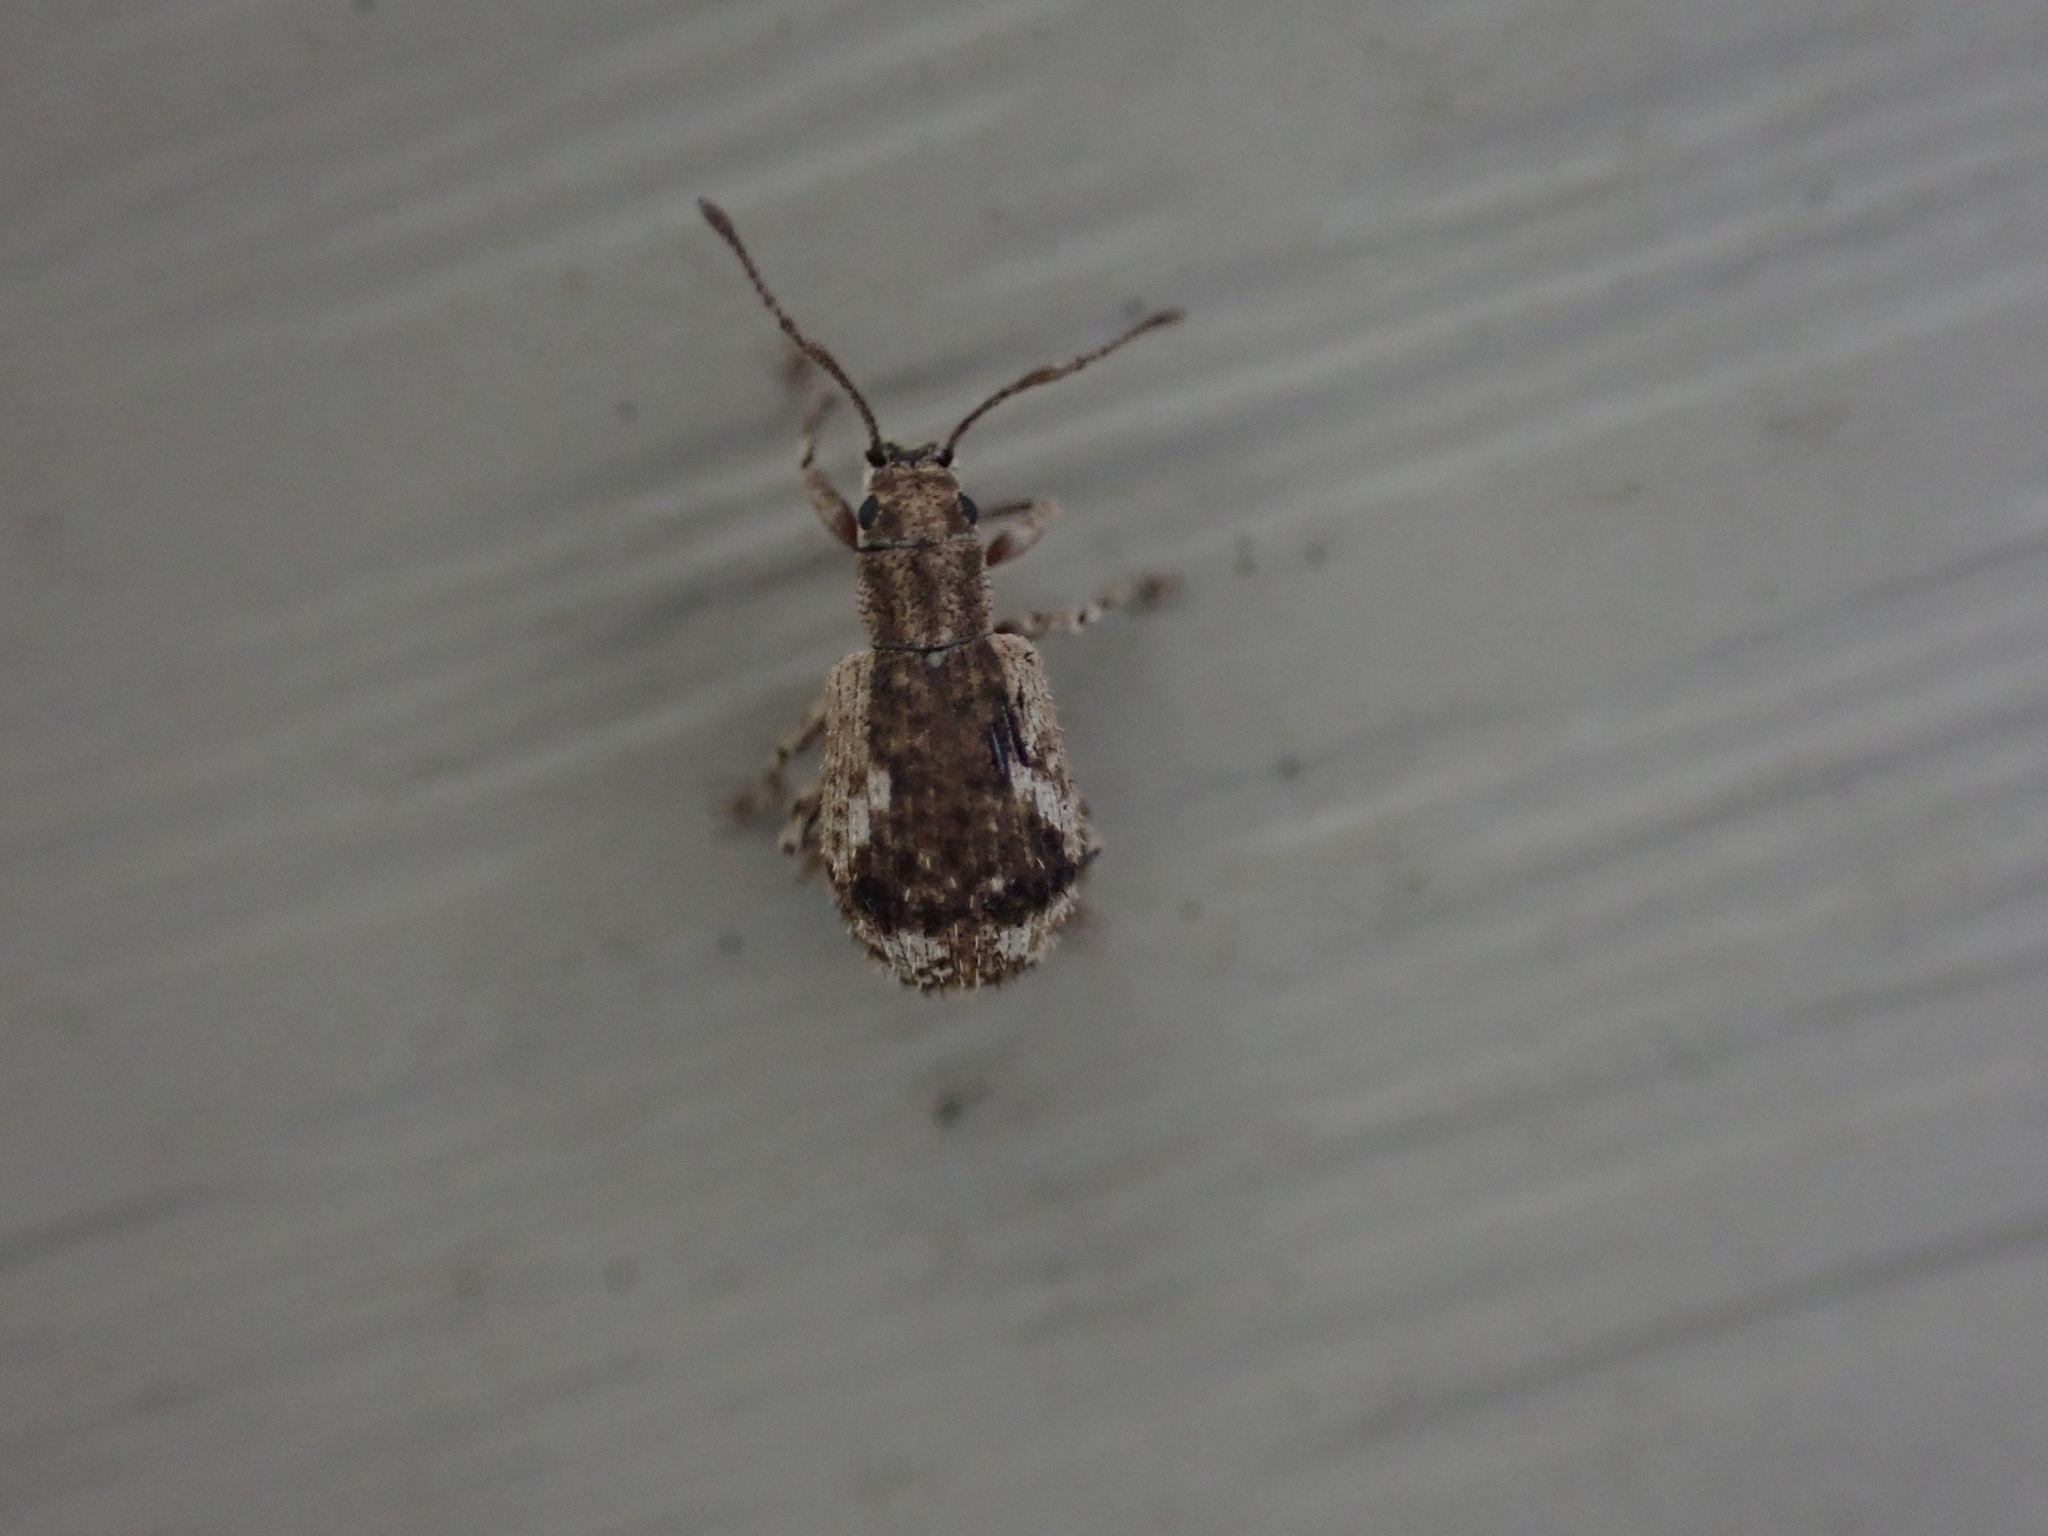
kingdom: Animalia
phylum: Arthropoda
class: Insecta
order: Coleoptera
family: Curculionidae
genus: Pseudoedophrys
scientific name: Pseudoedophrys hilleri
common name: Weevil
